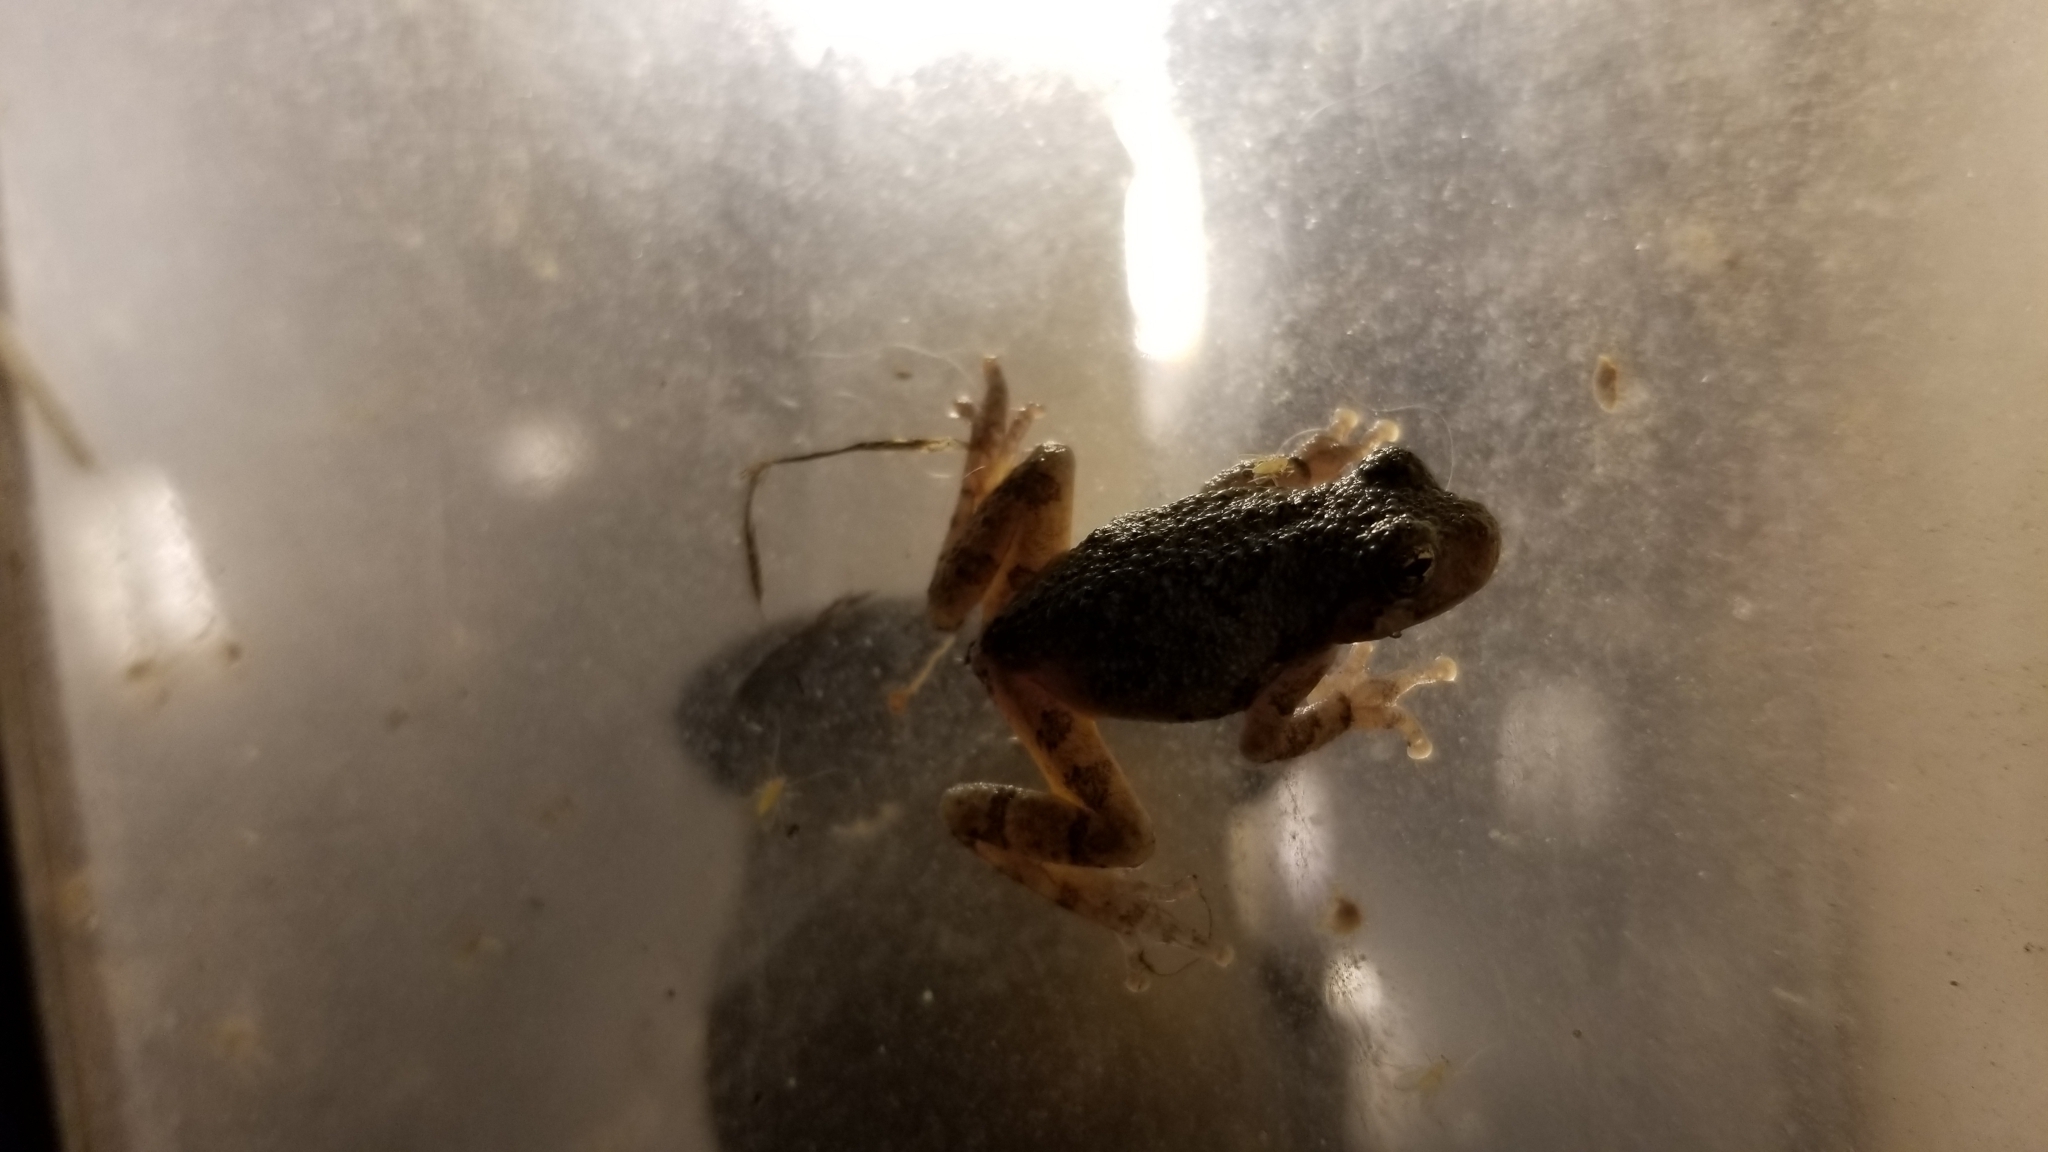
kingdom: Animalia
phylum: Chordata
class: Amphibia
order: Anura
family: Hylidae
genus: Hyla
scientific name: Hyla
